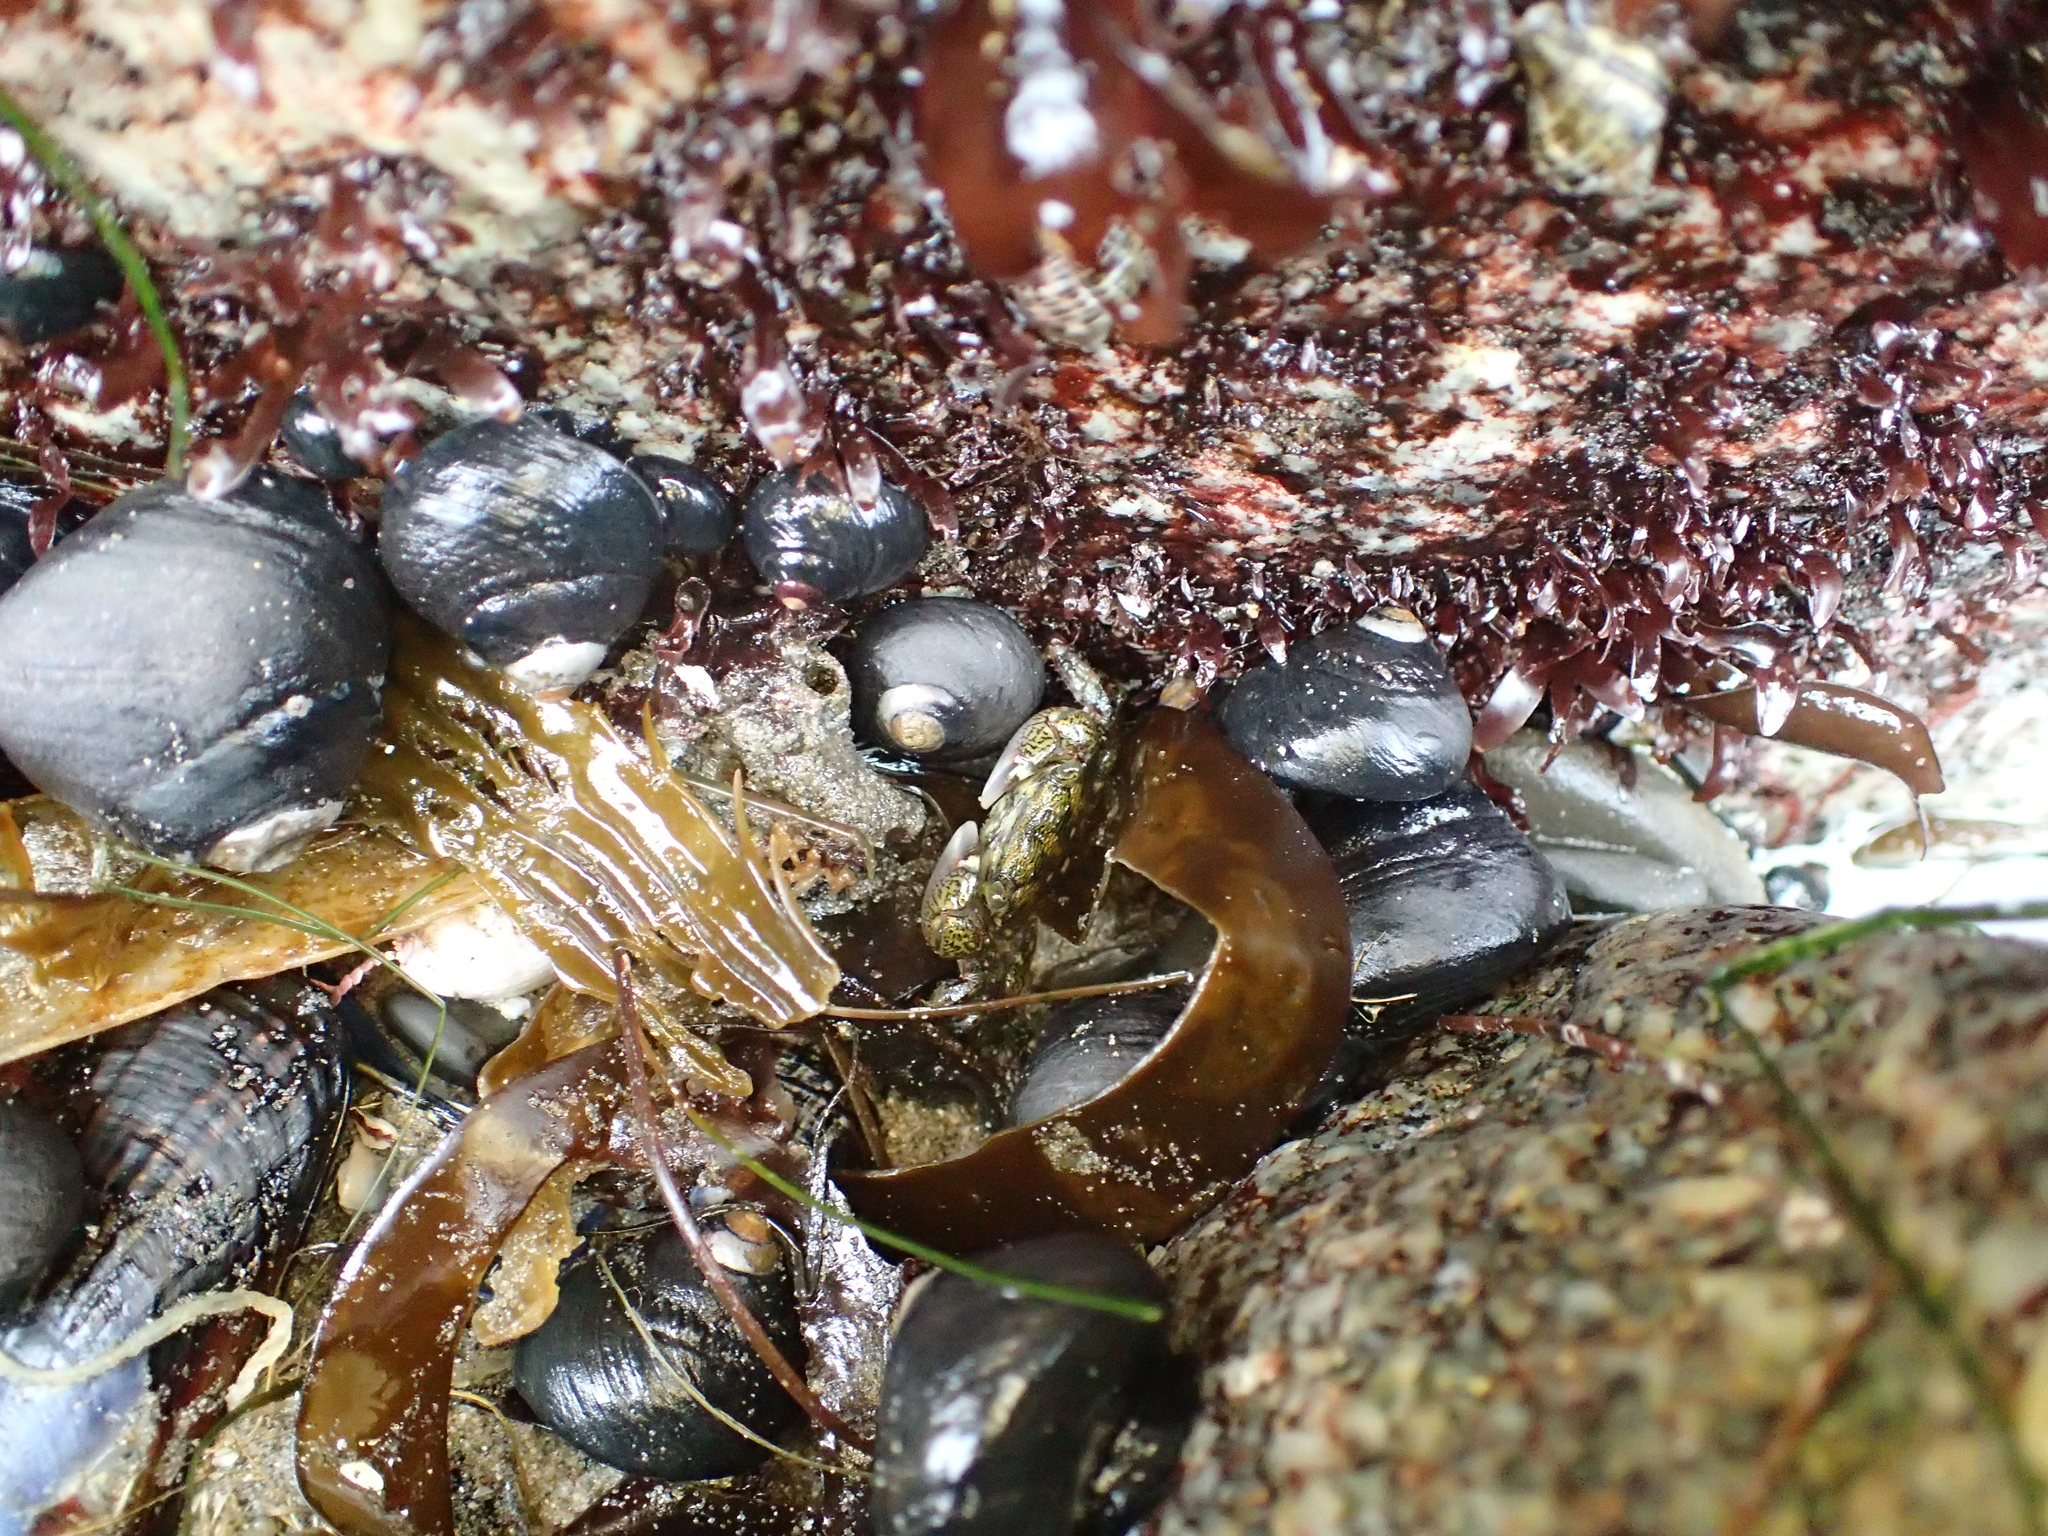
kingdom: Animalia
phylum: Arthropoda
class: Malacostraca
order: Decapoda
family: Grapsidae
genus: Pachygrapsus
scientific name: Pachygrapsus crassipes
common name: Striped shore crab
